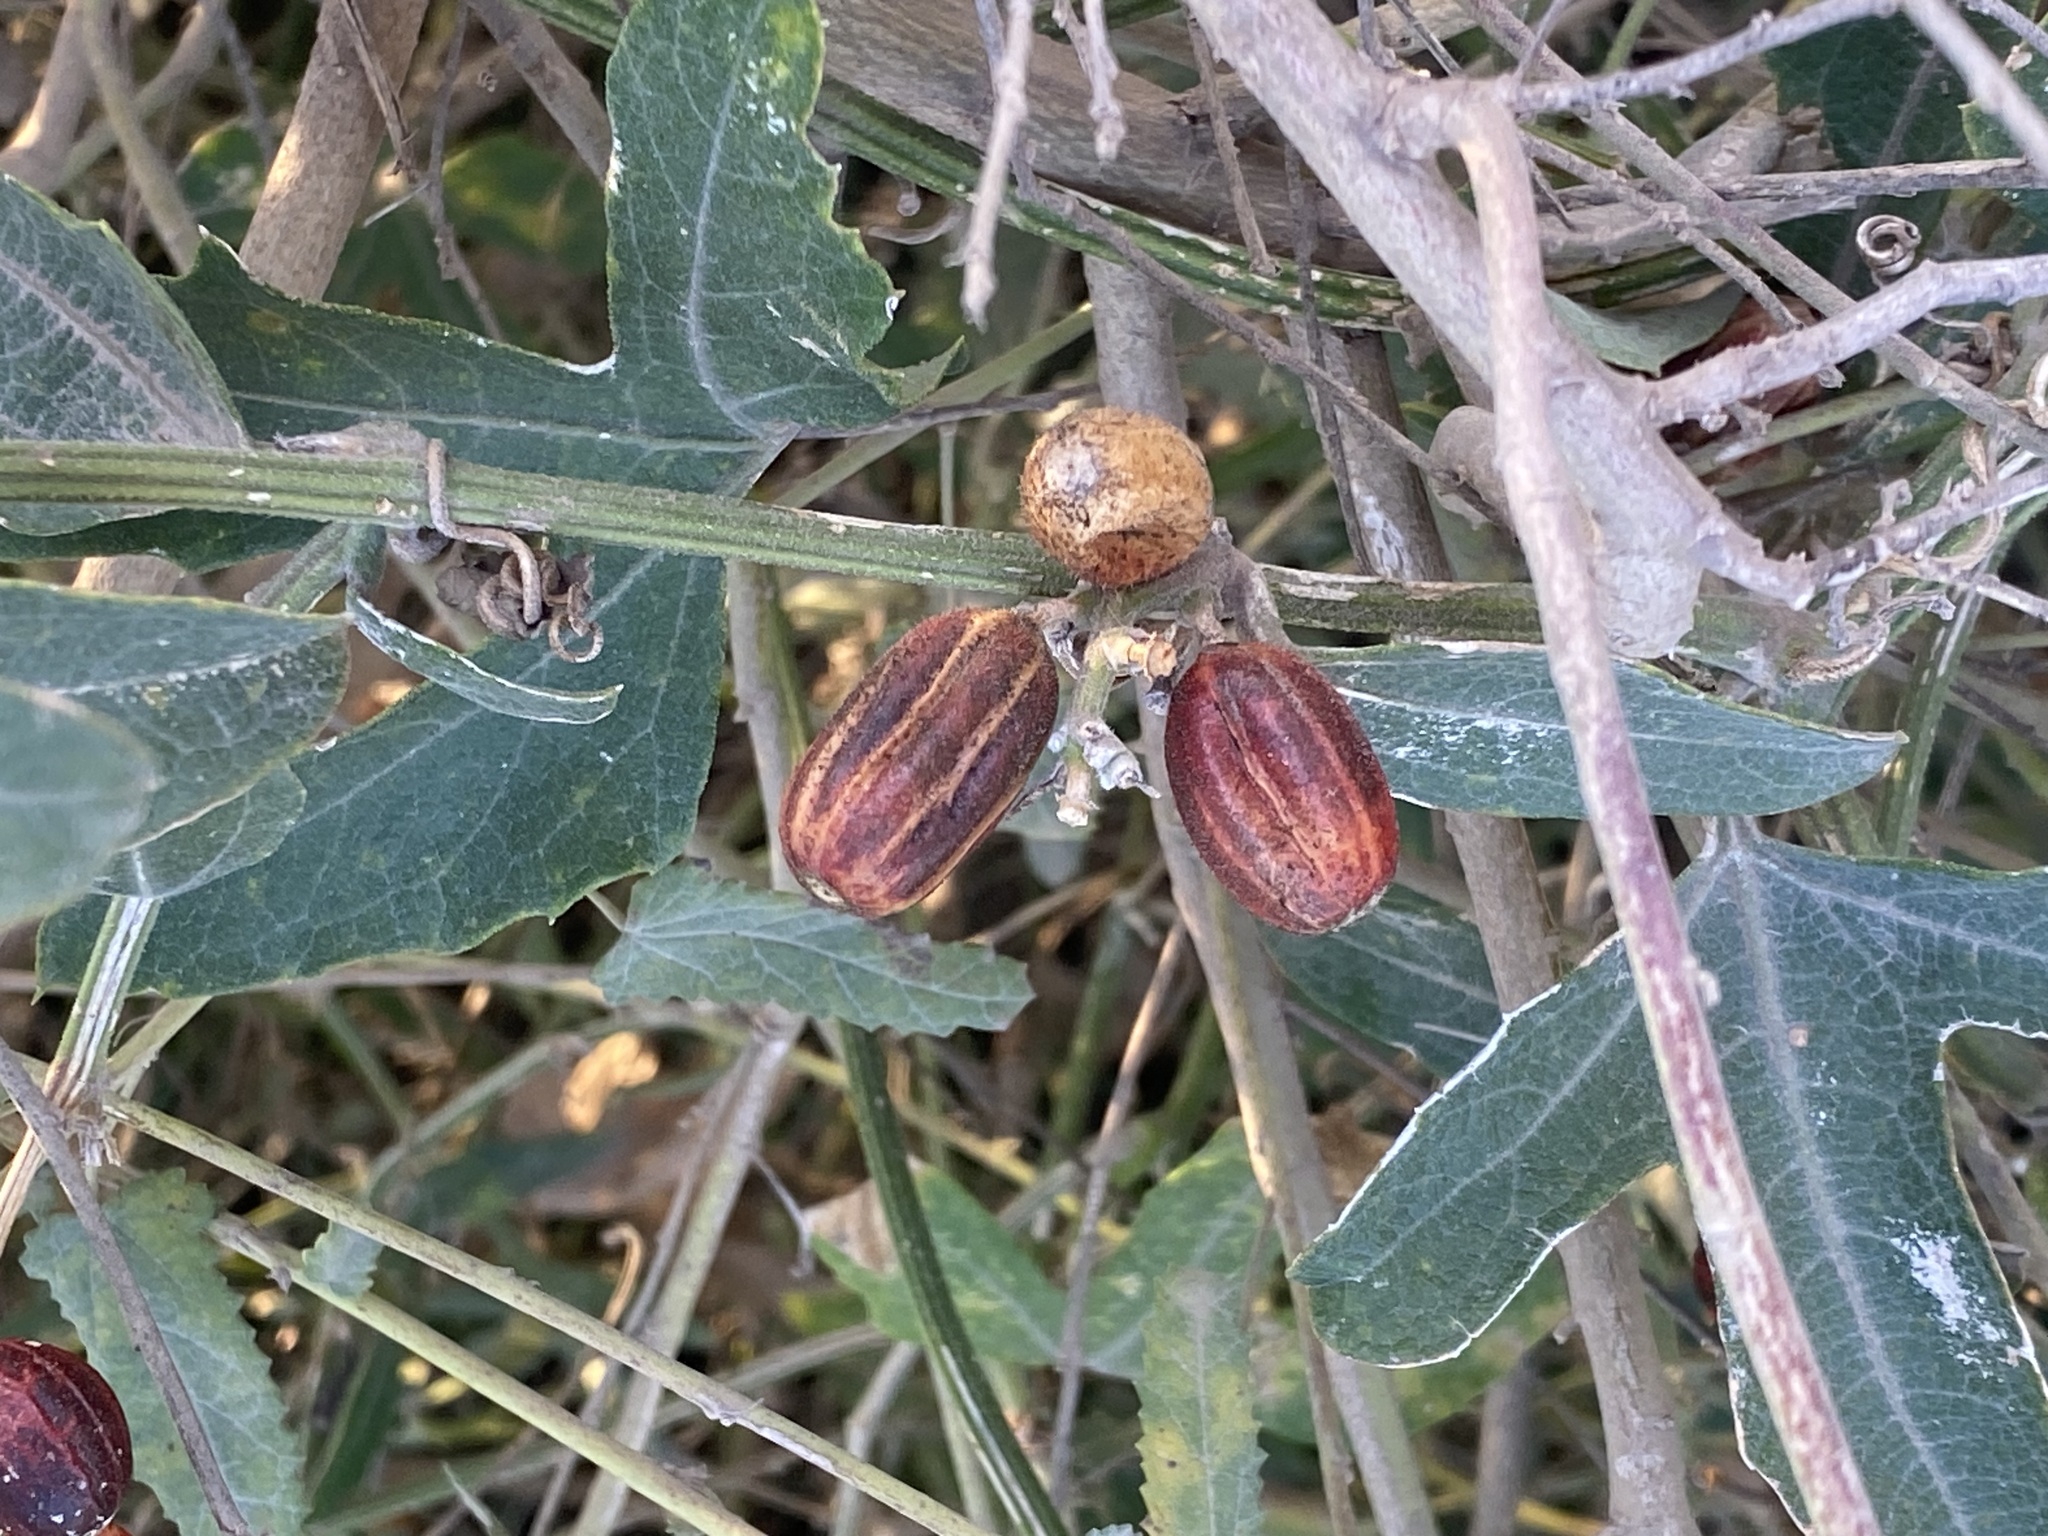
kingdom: Plantae
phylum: Tracheophyta
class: Magnoliopsida
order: Cucurbitales
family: Cucurbitaceae
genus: Cayaponia
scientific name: Cayaponia podantha
